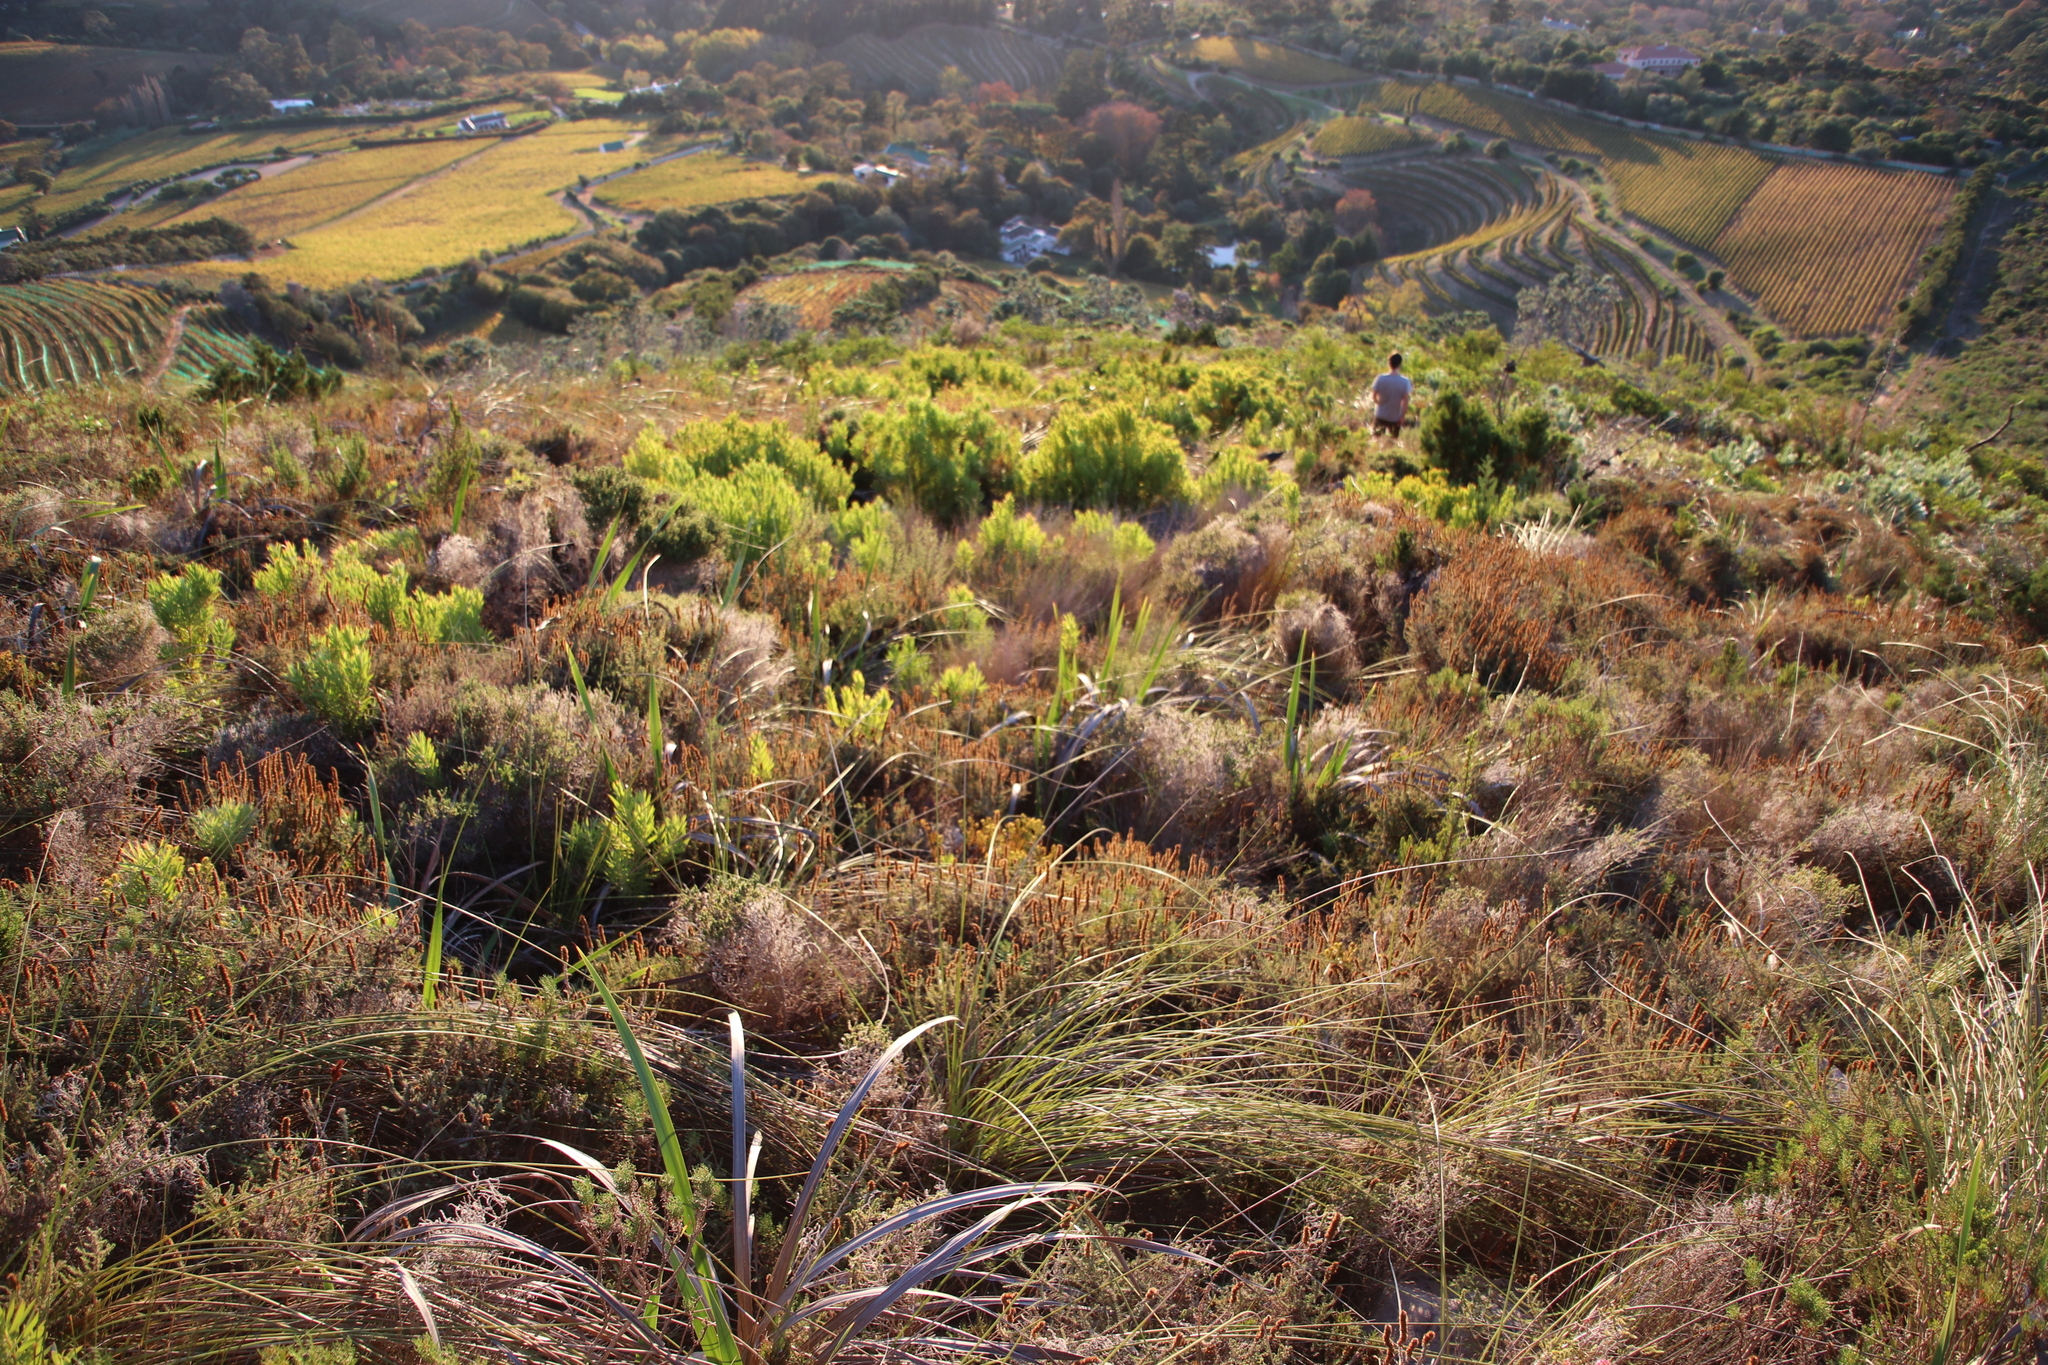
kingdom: Plantae
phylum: Tracheophyta
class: Magnoliopsida
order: Proteales
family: Proteaceae
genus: Leucadendron
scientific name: Leucadendron xanthoconus
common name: Sickle-leaf conebush
